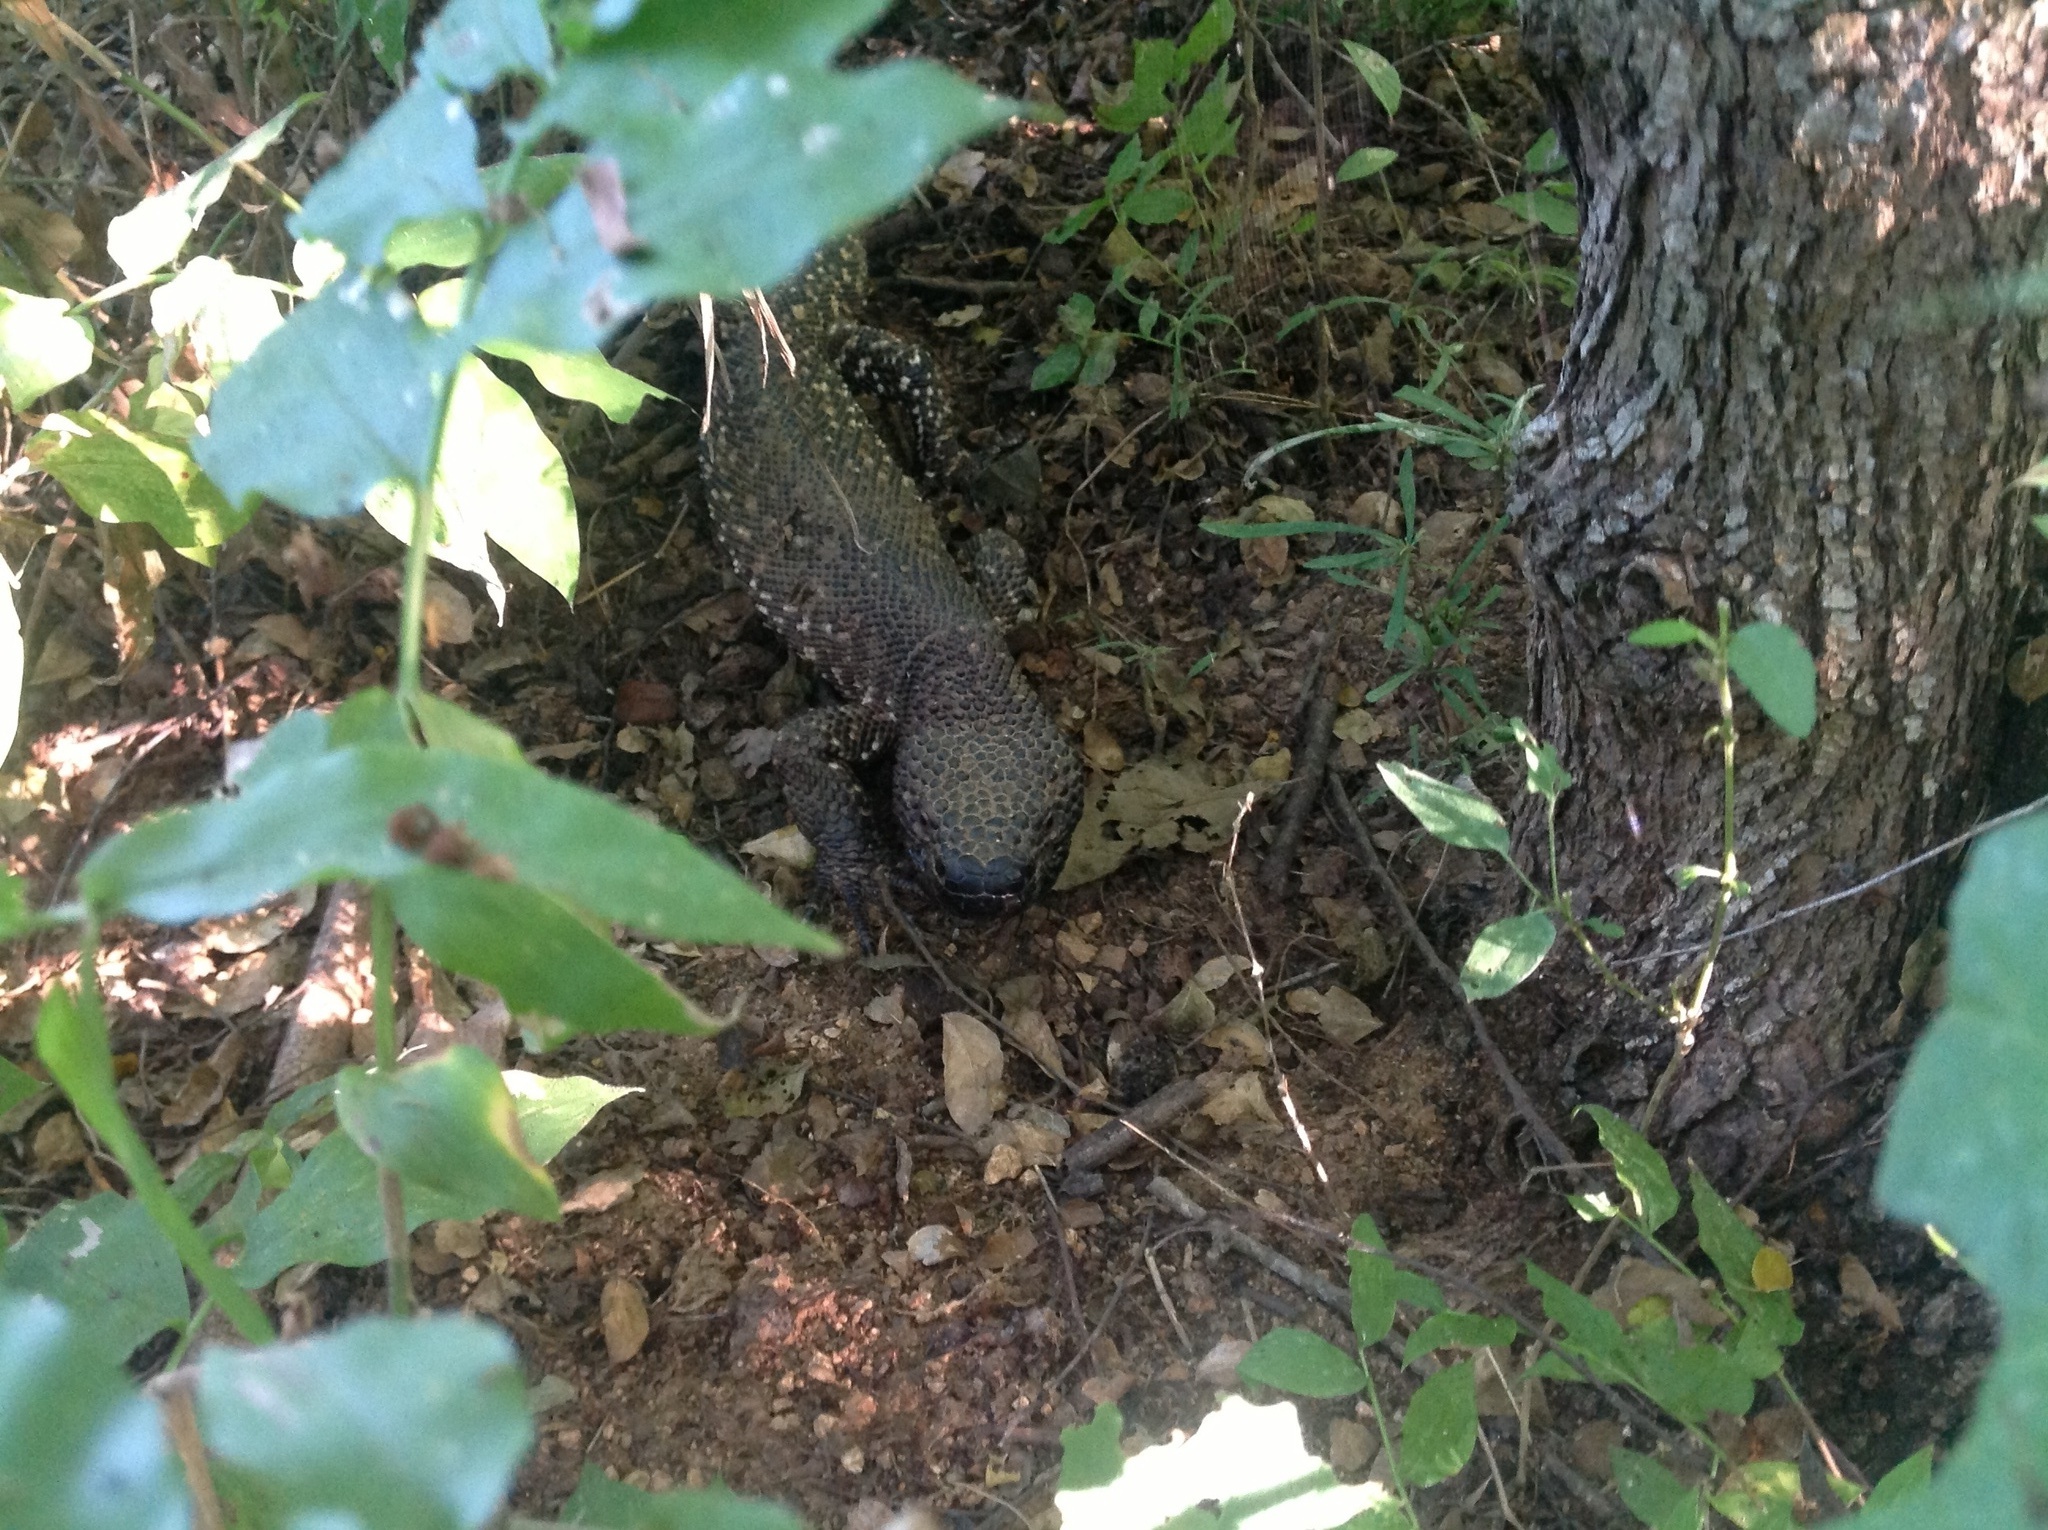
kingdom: Animalia
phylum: Chordata
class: Squamata
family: Helodermatidae
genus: Heloderma
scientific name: Heloderma horridum
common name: Mexican beaded lizard
